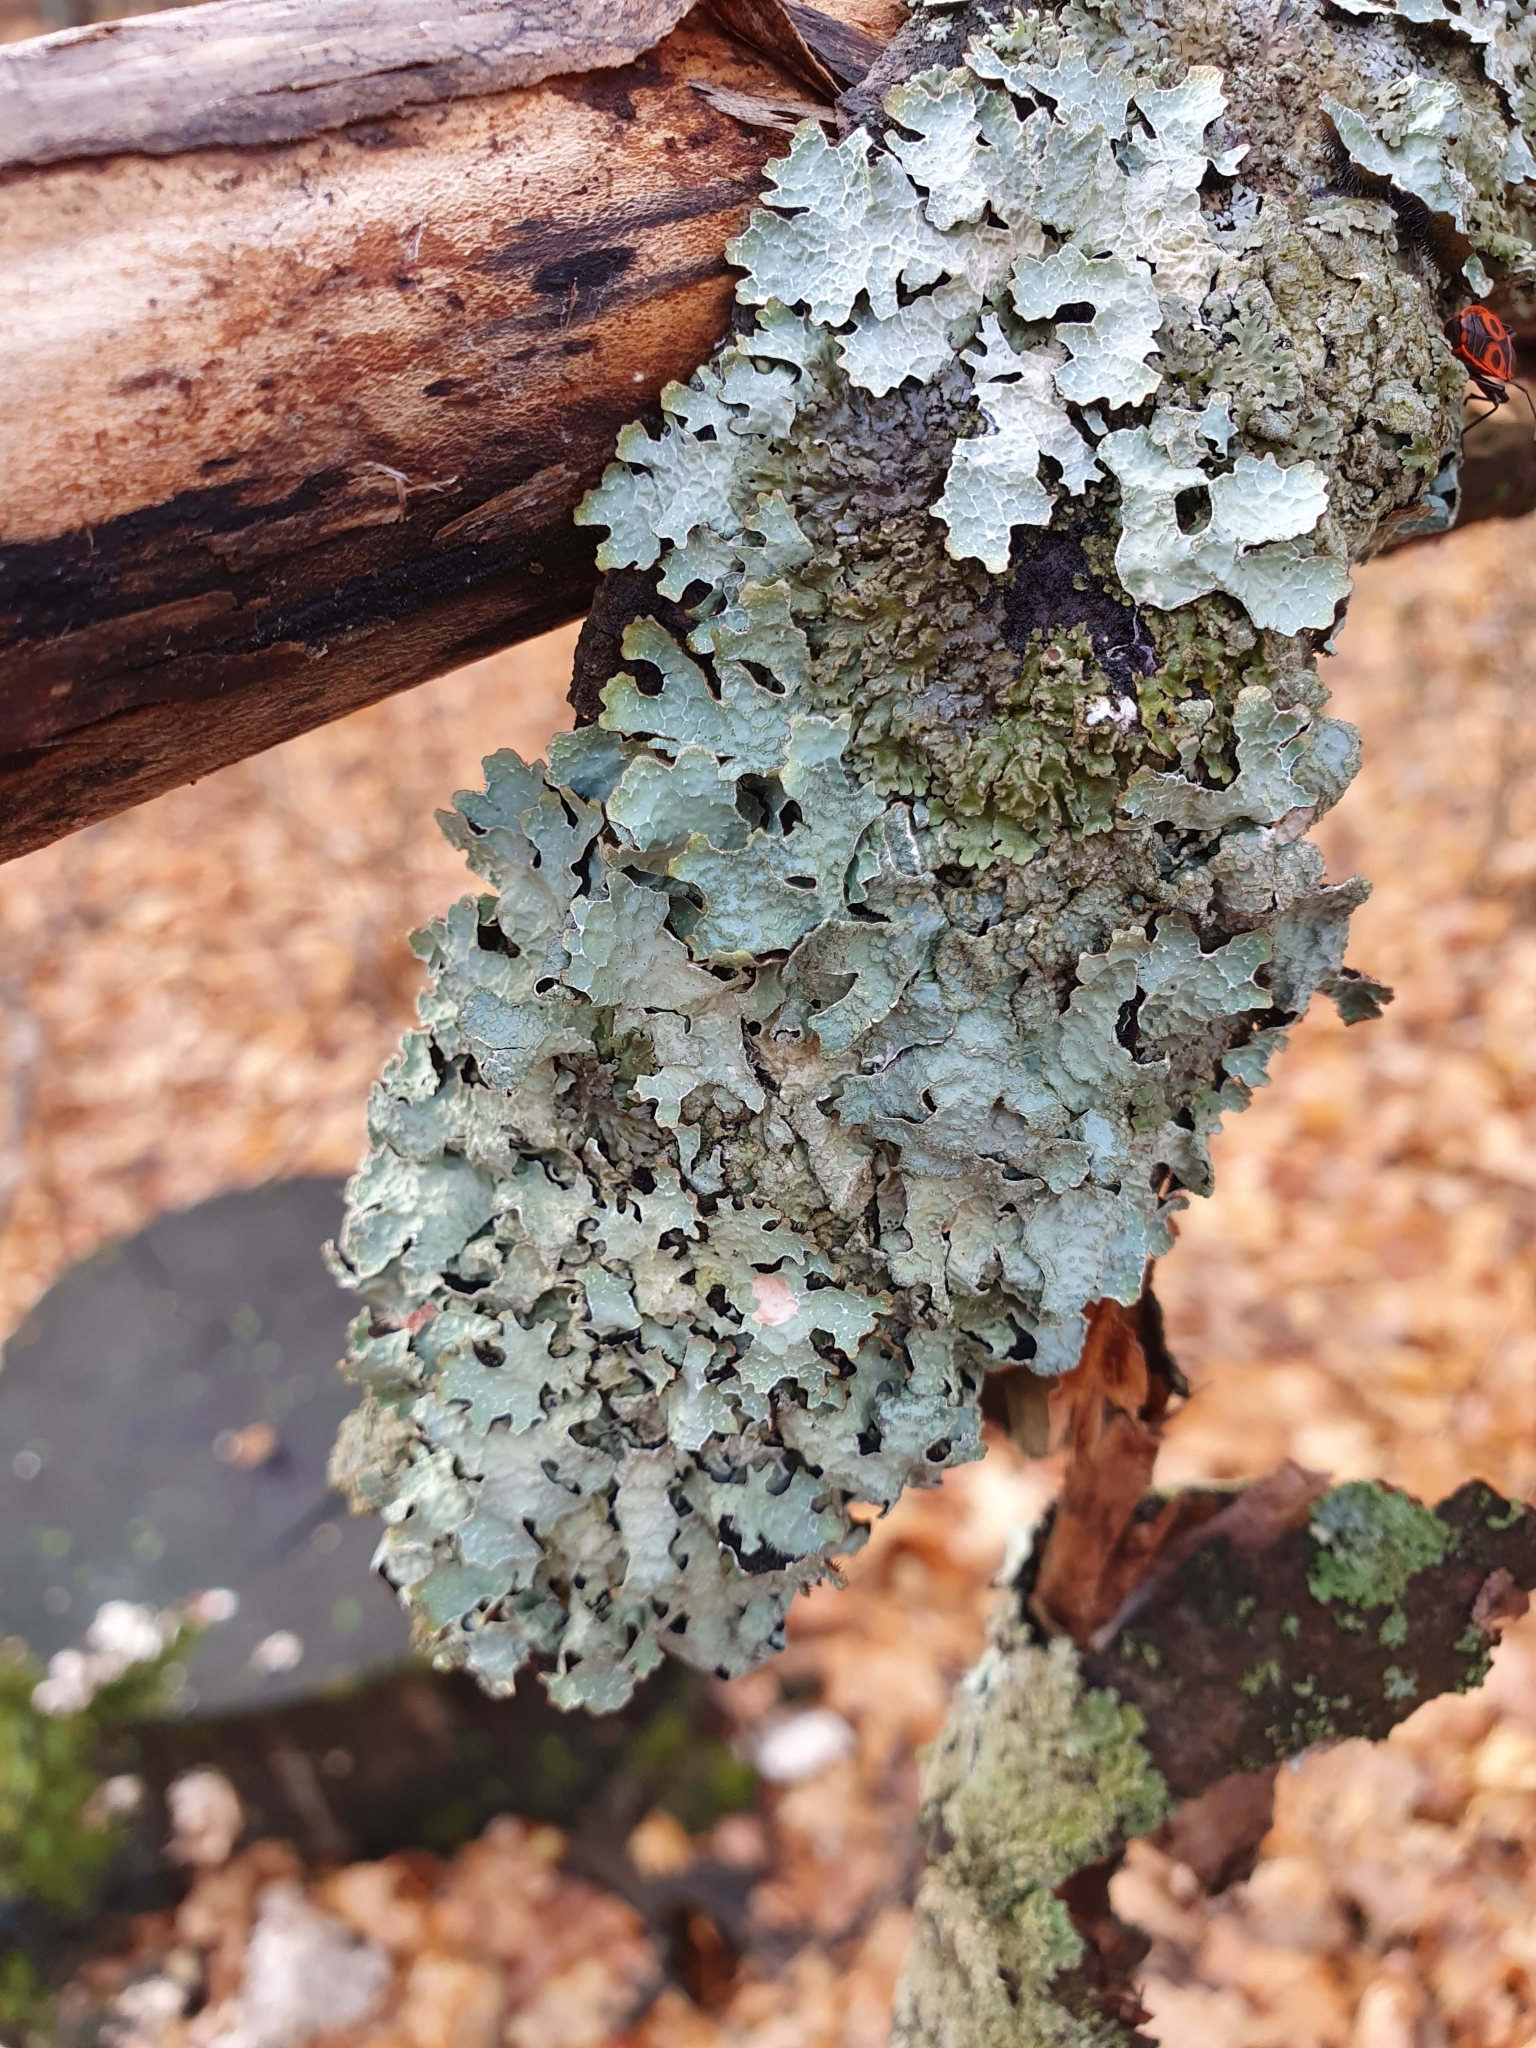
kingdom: Fungi
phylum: Ascomycota
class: Lecanoromycetes
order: Lecanorales
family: Parmeliaceae
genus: Parmelia
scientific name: Parmelia sulcata
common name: Netted shield lichen
